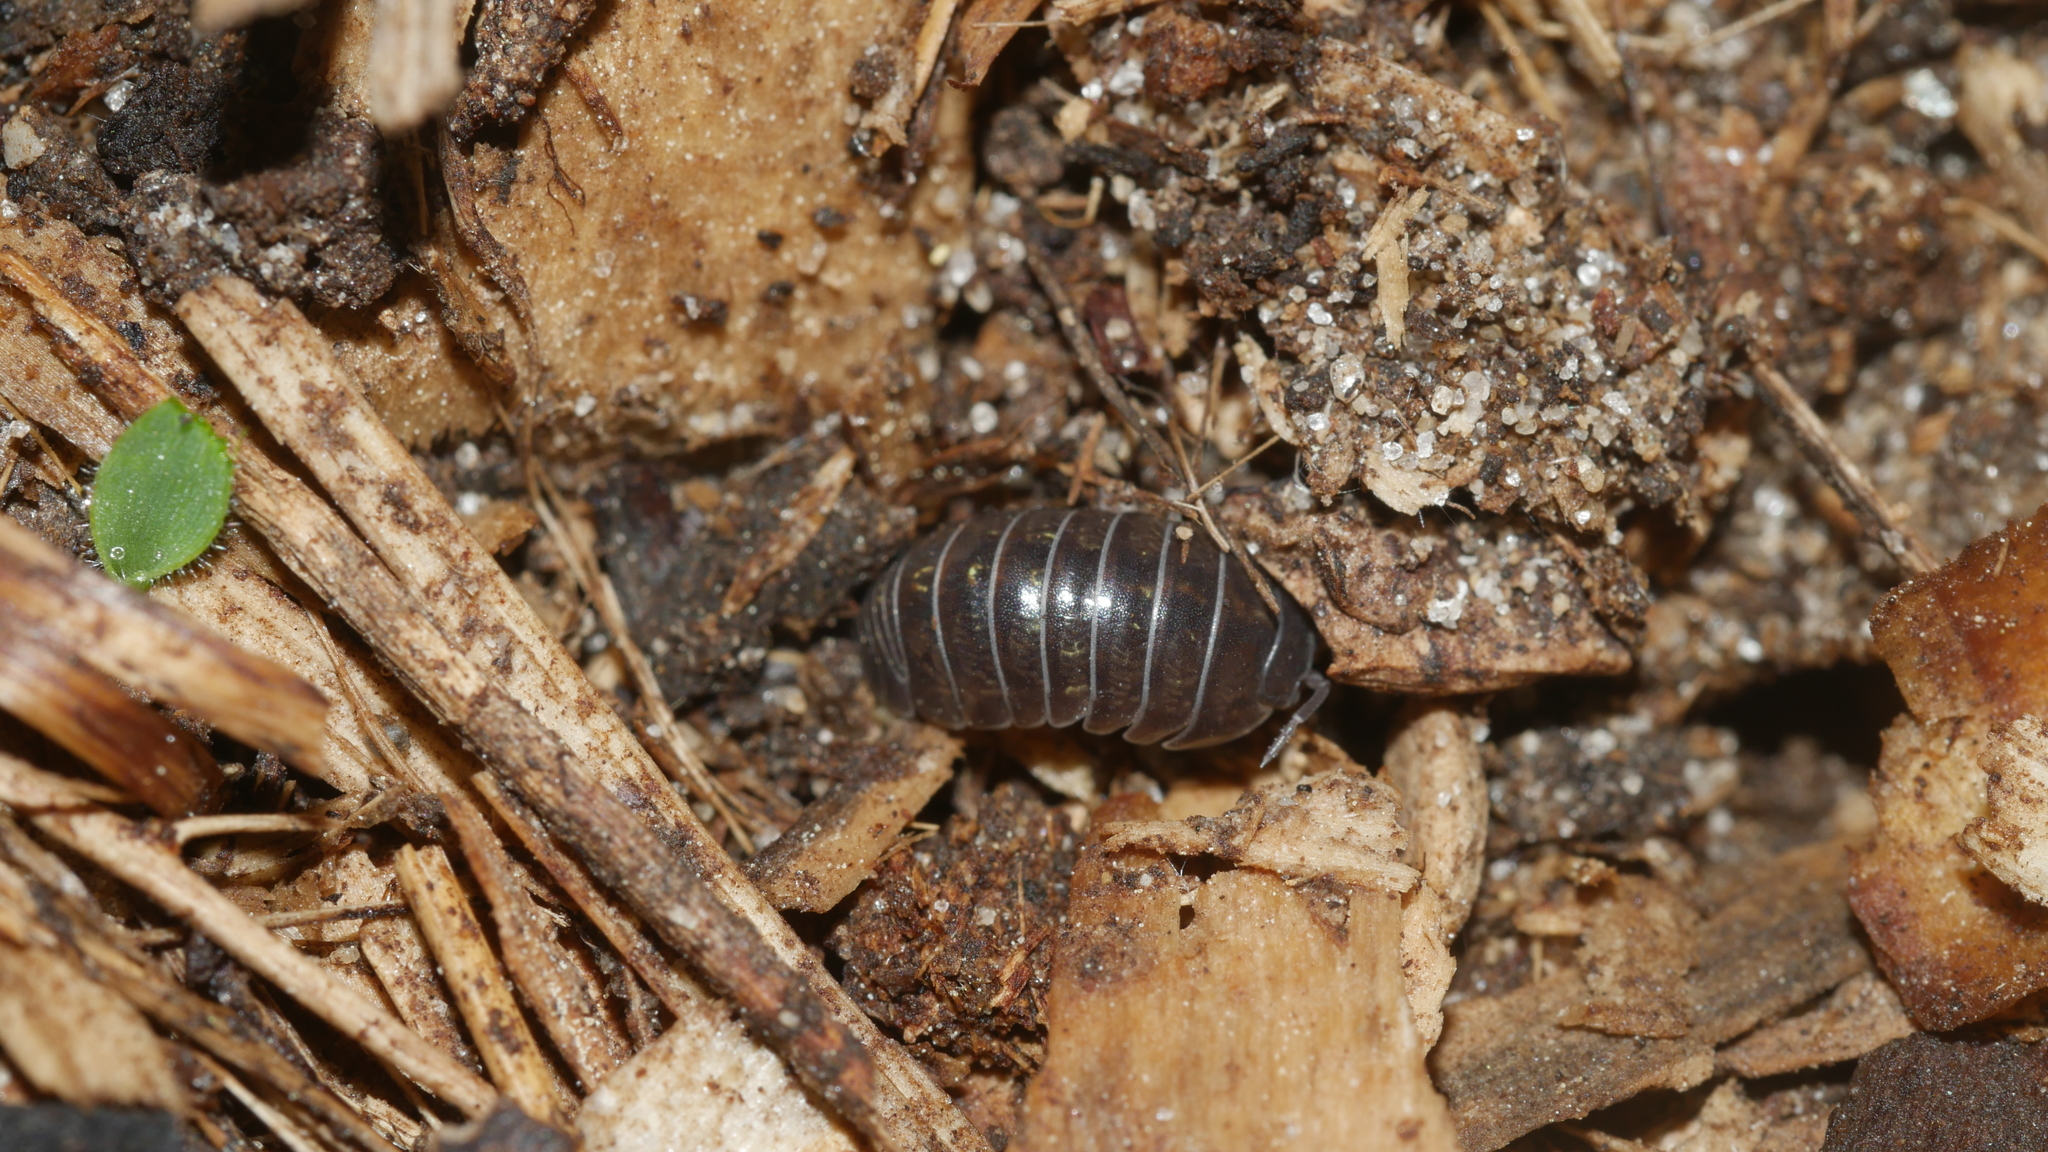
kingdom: Animalia
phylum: Arthropoda
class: Malacostraca
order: Isopoda
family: Armadillidiidae
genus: Armadillidium
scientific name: Armadillidium vulgare
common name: Common pill woodlouse
